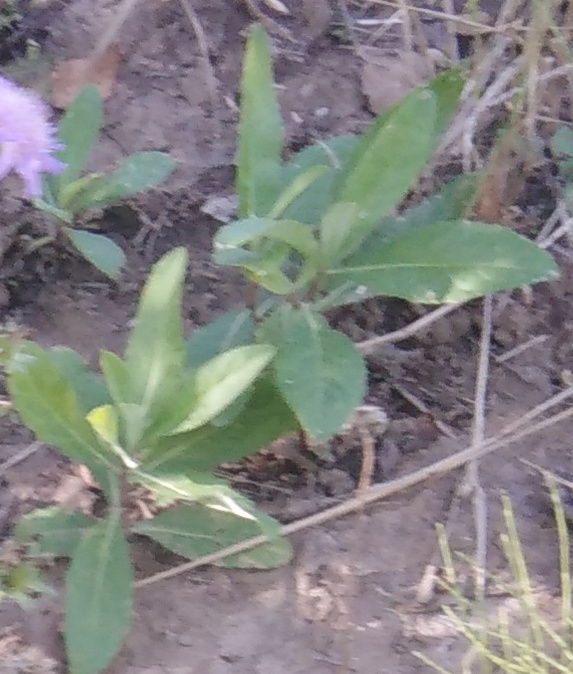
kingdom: Plantae
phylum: Tracheophyta
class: Magnoliopsida
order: Asterales
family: Asteraceae
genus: Cirsium
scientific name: Cirsium arvense
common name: Creeping thistle
